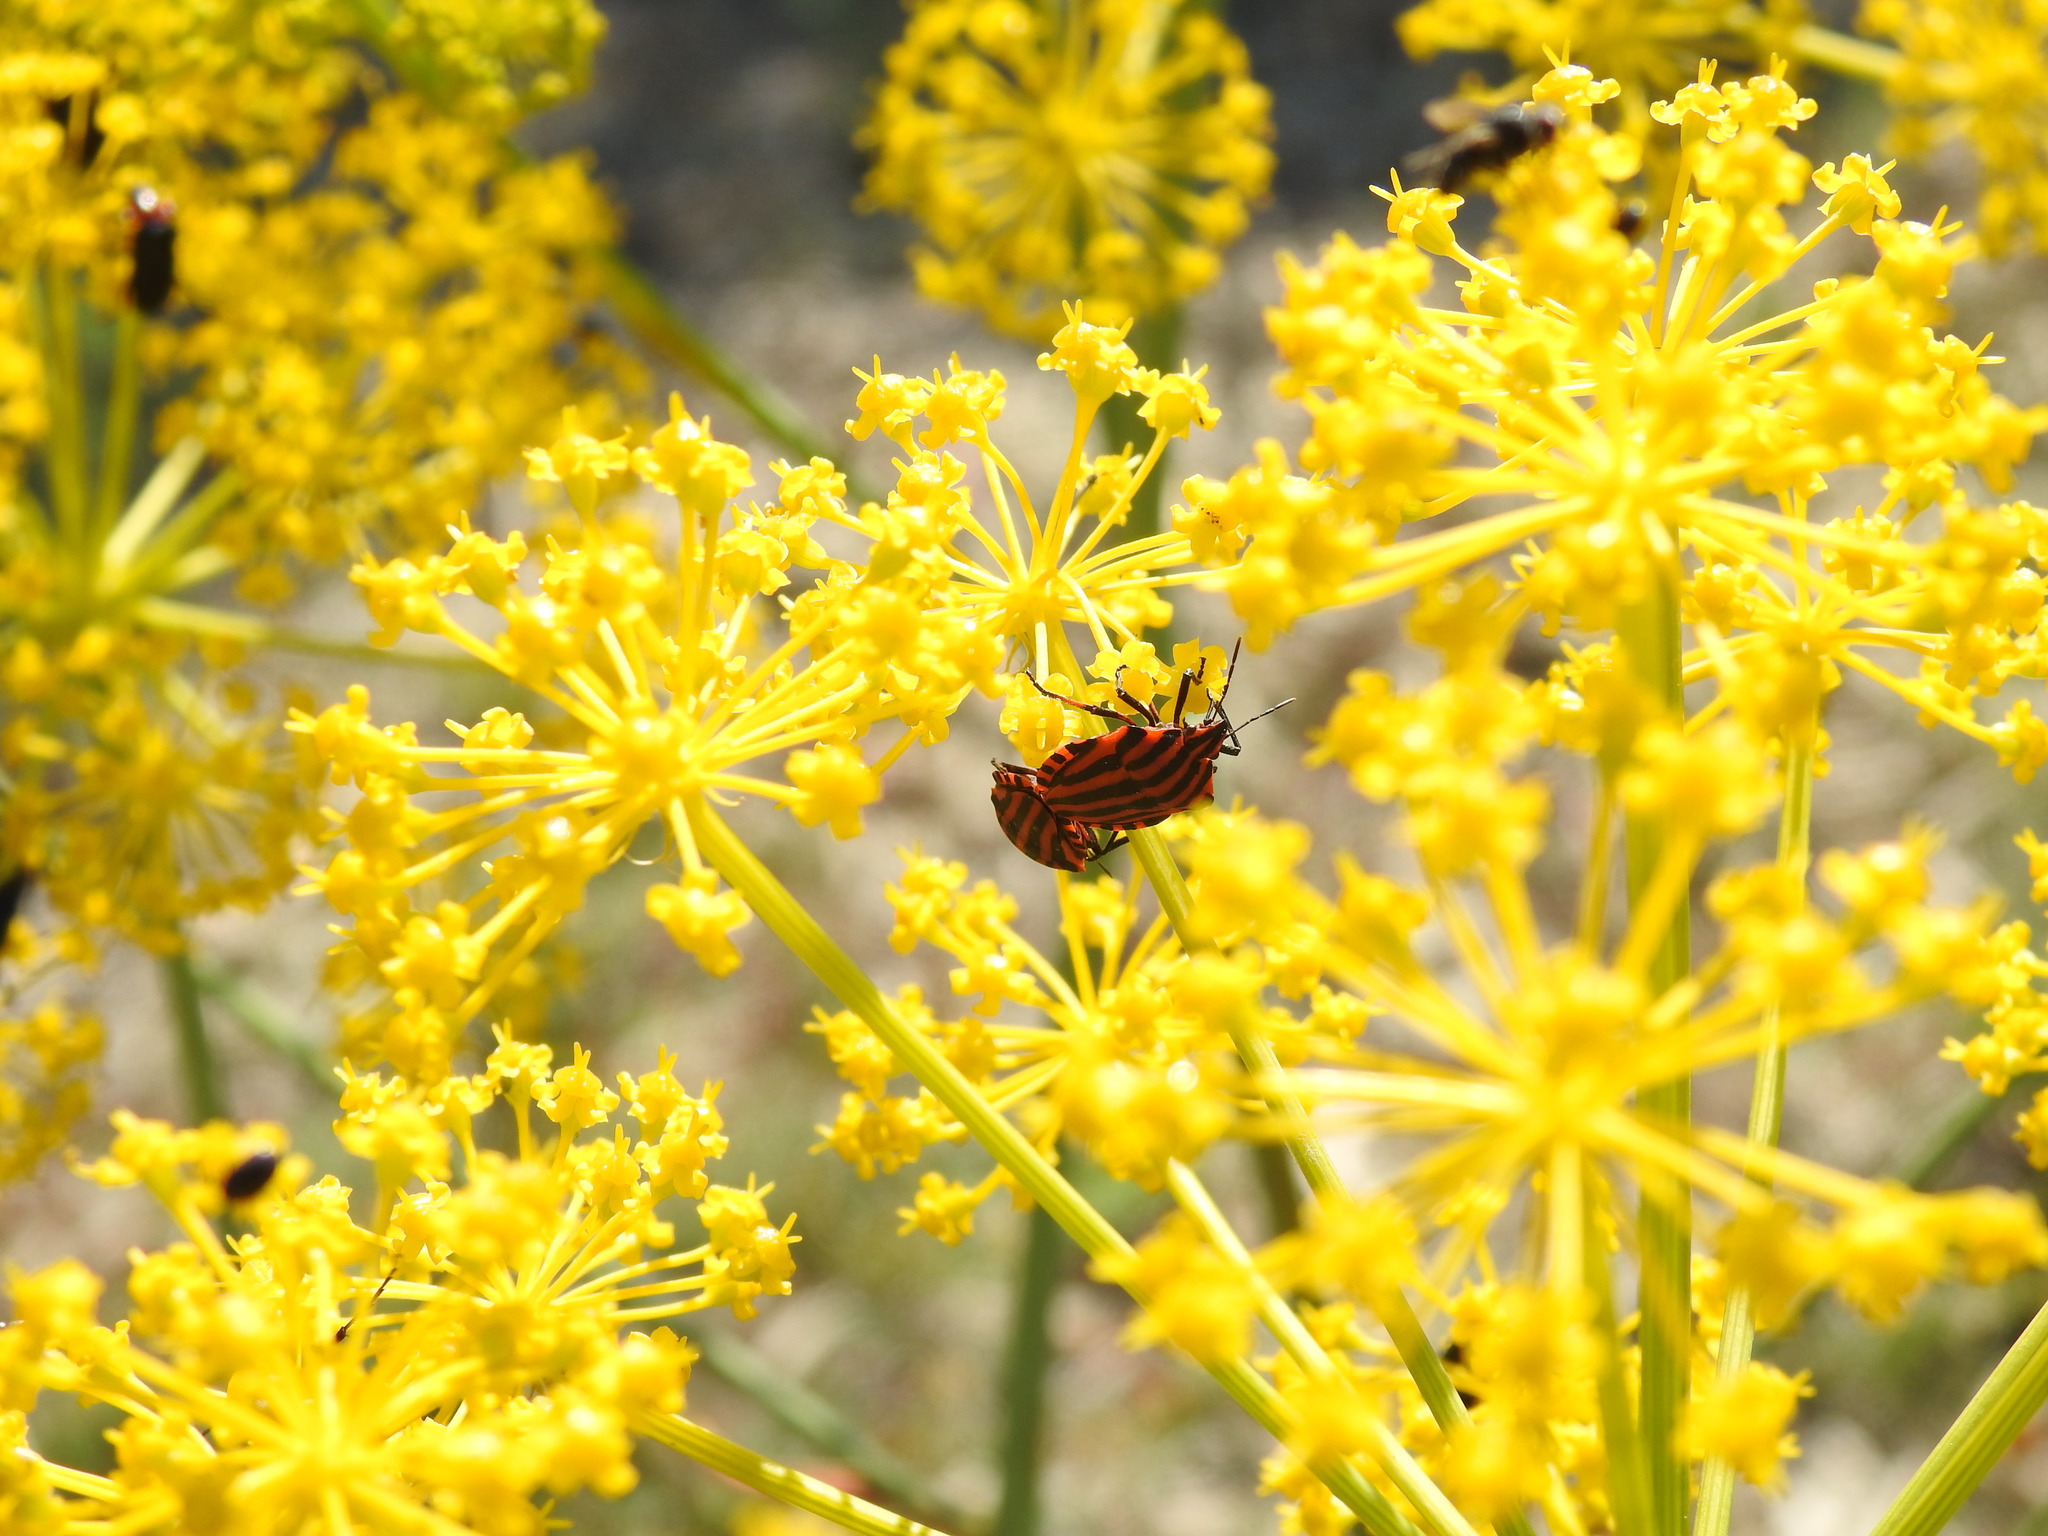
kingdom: Animalia
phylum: Arthropoda
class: Insecta
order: Hemiptera
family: Pentatomidae
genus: Graphosoma
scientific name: Graphosoma italicum
